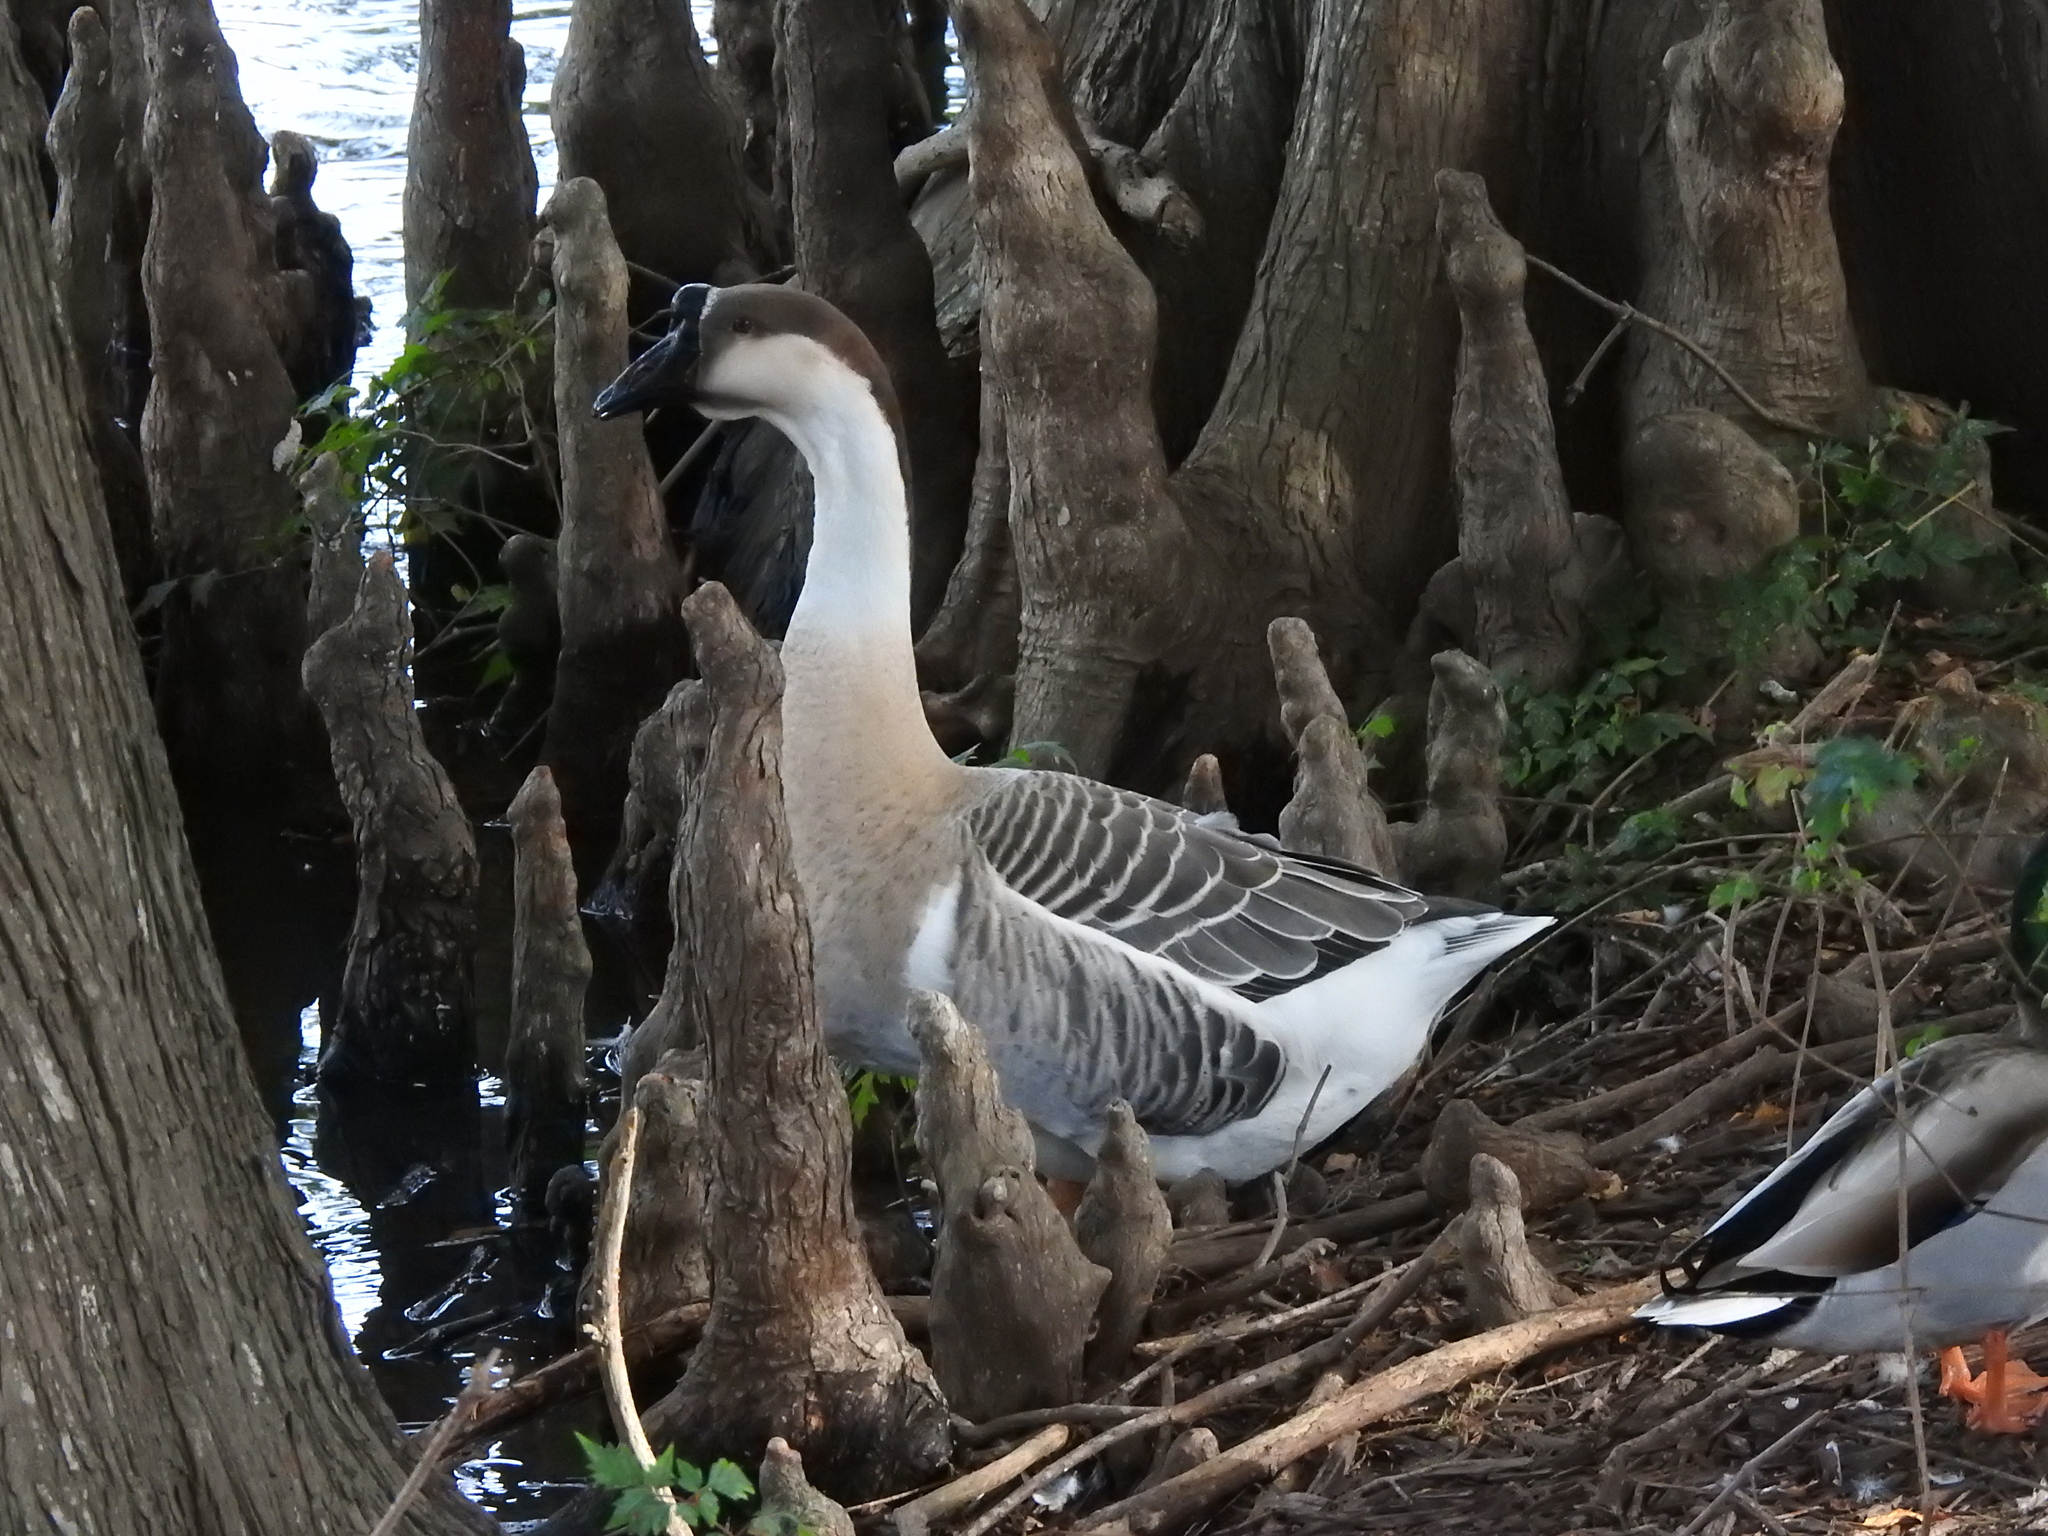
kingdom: Animalia
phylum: Chordata
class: Aves
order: Anseriformes
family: Anatidae
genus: Anser
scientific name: Anser cygnoides
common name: Swan goose
